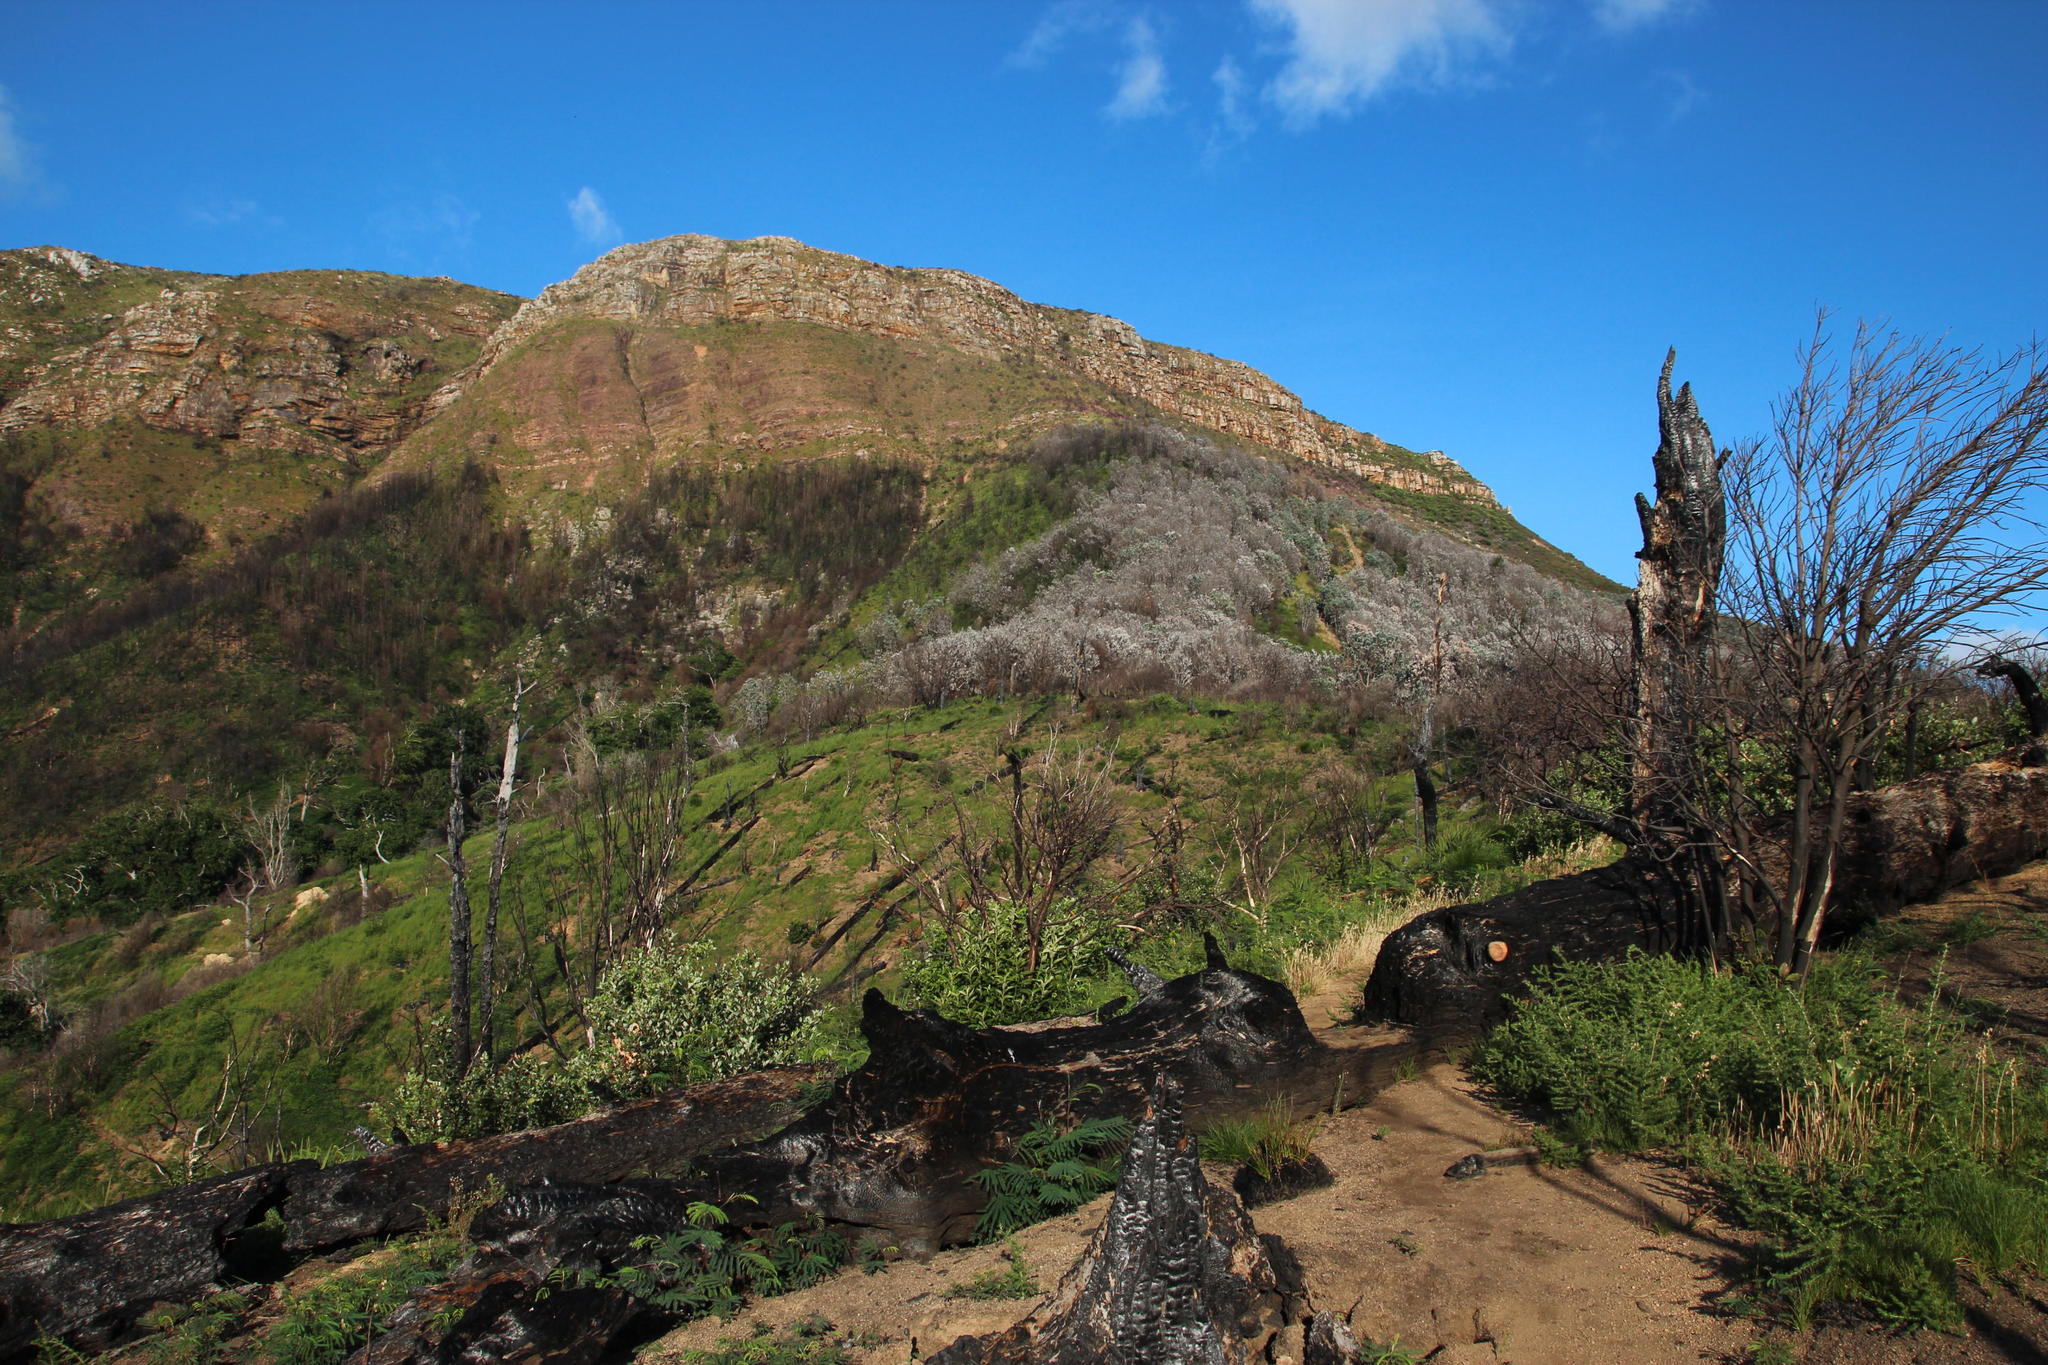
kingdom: Plantae
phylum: Tracheophyta
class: Pinopsida
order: Pinales
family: Pinaceae
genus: Pinus
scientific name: Pinus pinea
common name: Italian stone pine
